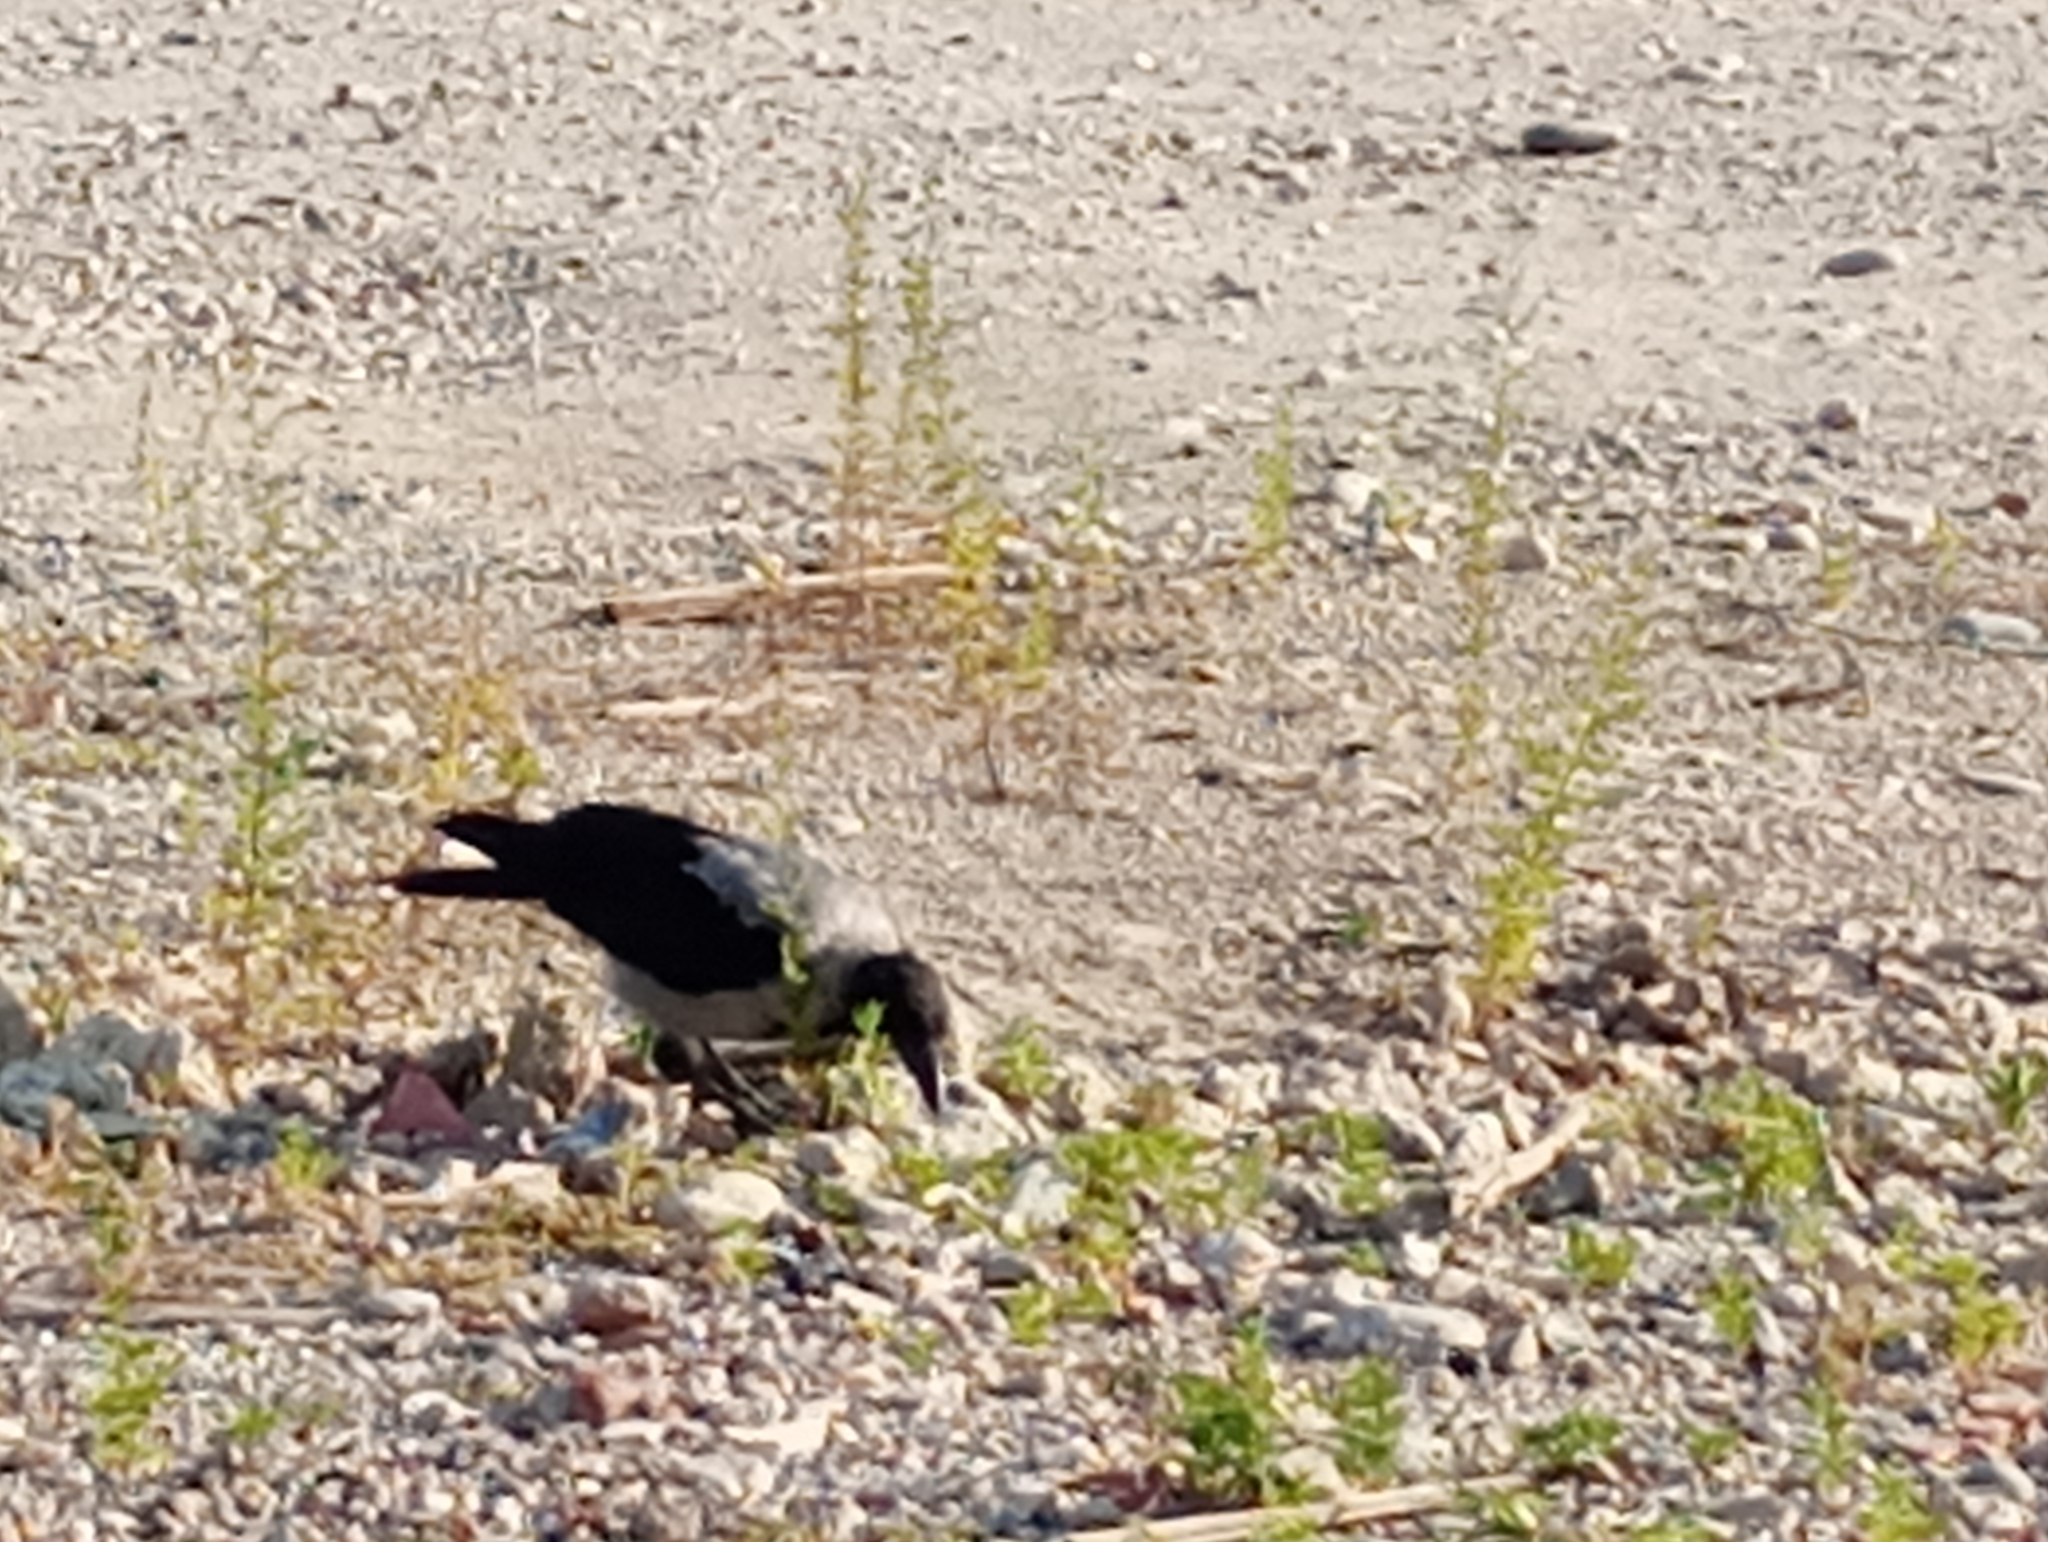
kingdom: Animalia
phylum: Chordata
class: Aves
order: Passeriformes
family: Corvidae
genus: Corvus
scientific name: Corvus cornix
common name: Hooded crow
